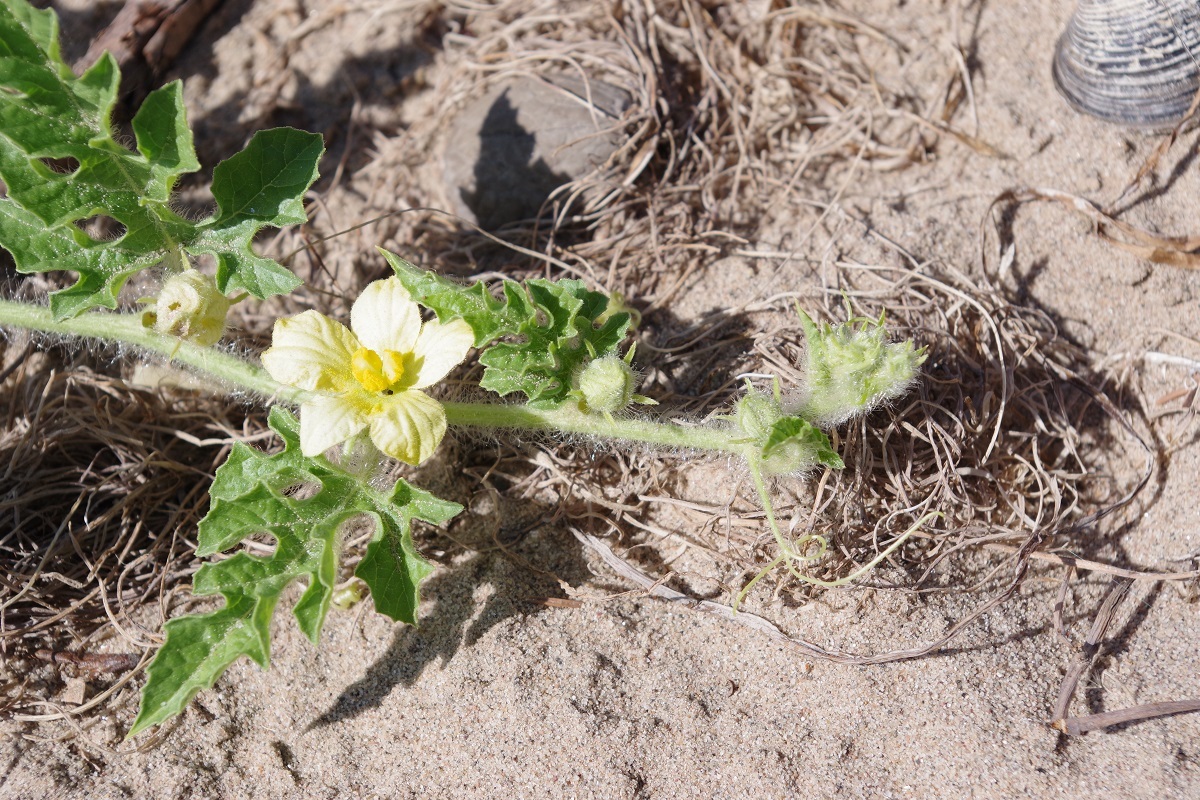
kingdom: Plantae
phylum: Tracheophyta
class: Magnoliopsida
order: Cucurbitales
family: Cucurbitaceae
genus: Citrullus
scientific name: Citrullus lanatus
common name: Watermelon
